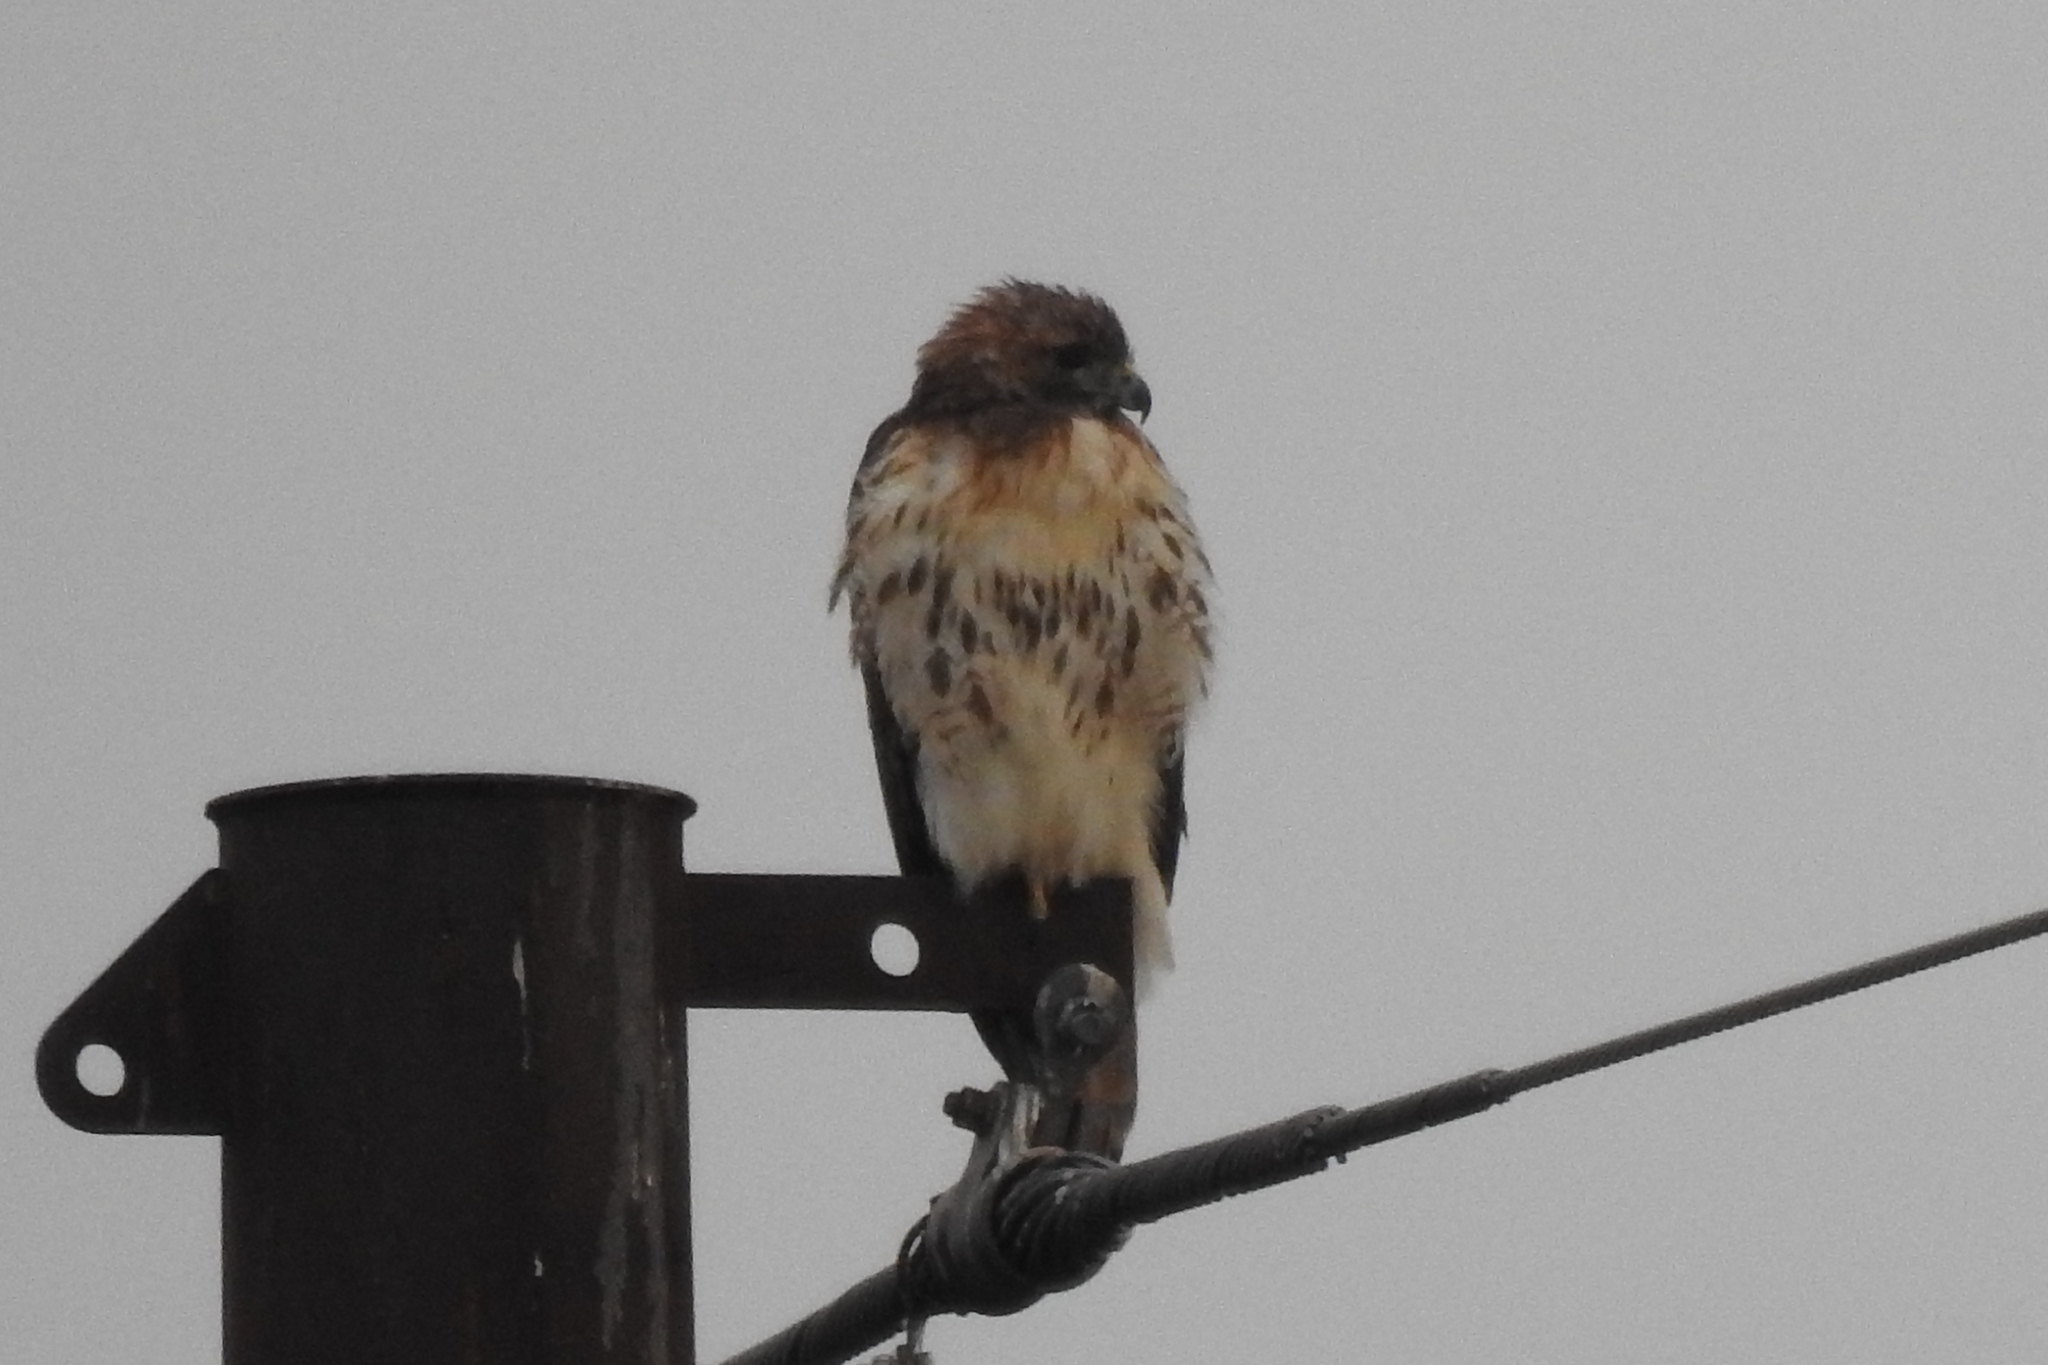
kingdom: Animalia
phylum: Chordata
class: Aves
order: Accipitriformes
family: Accipitridae
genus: Buteo
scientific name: Buteo jamaicensis
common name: Red-tailed hawk
